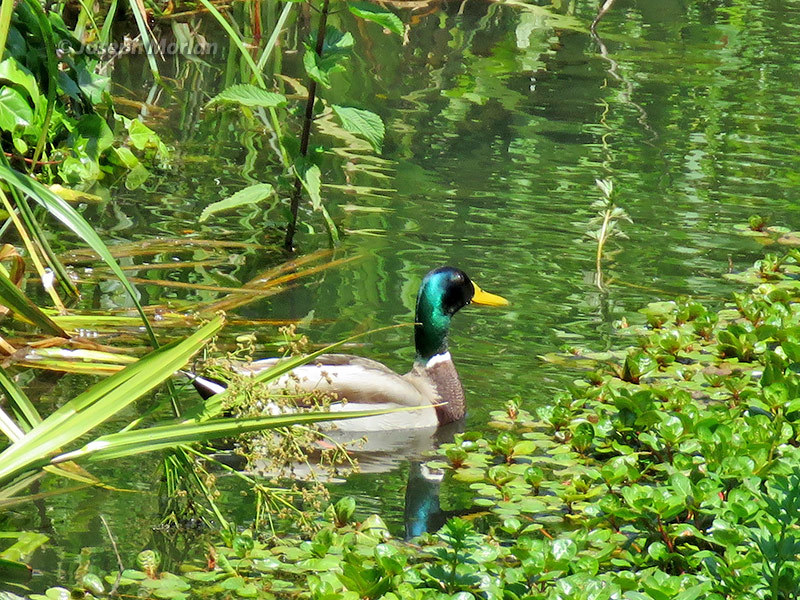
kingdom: Animalia
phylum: Chordata
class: Aves
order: Anseriformes
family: Anatidae
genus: Anas
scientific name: Anas platyrhynchos
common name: Mallard
